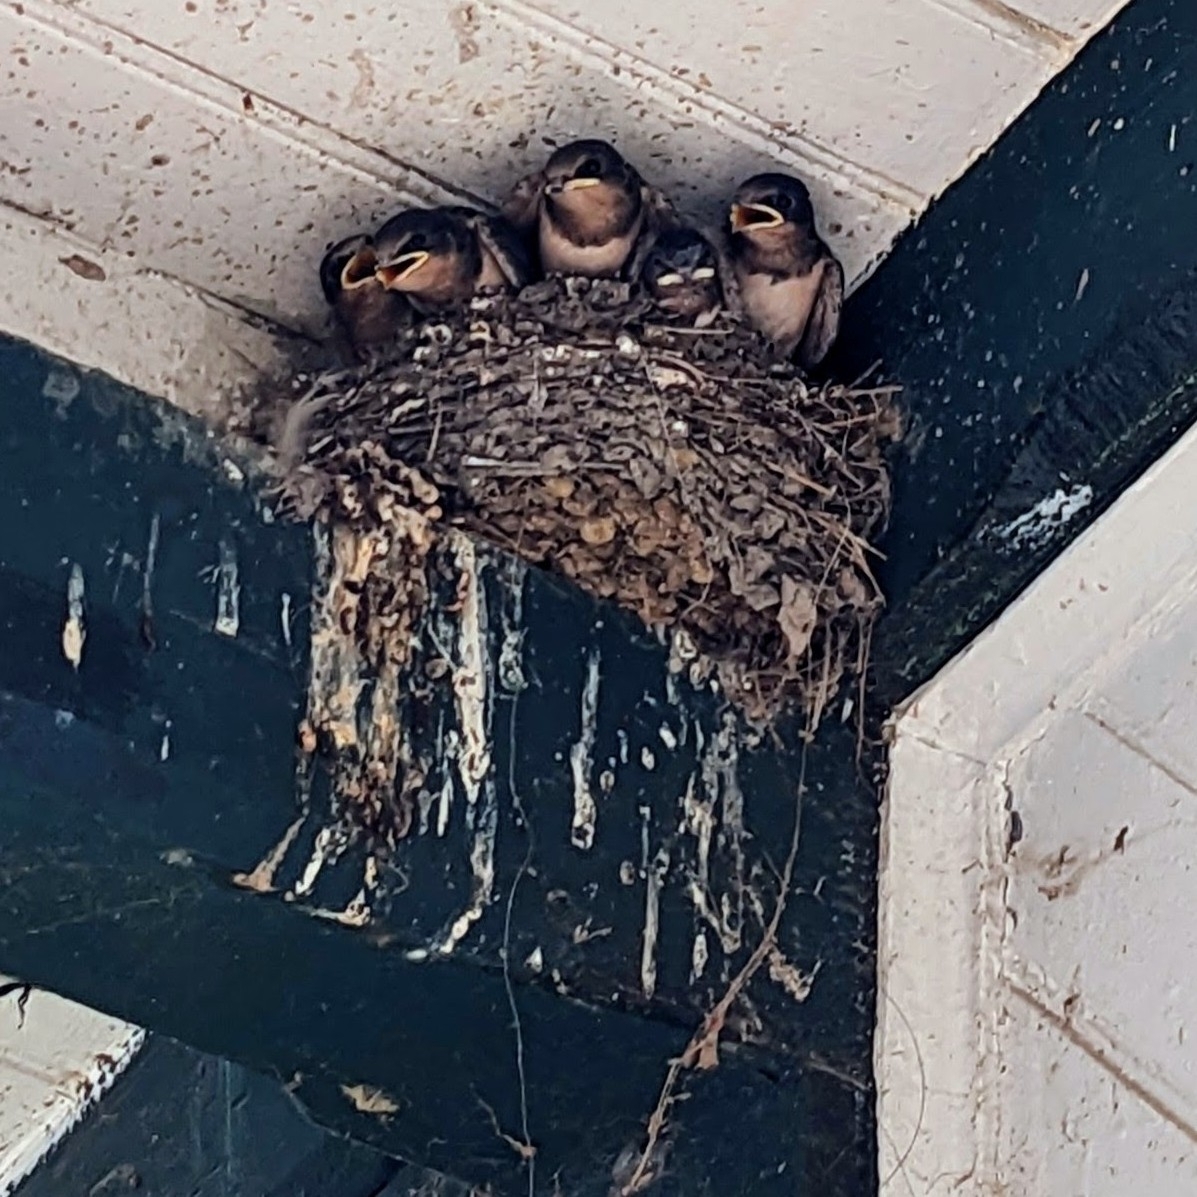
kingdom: Animalia
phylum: Chordata
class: Aves
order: Passeriformes
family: Hirundinidae
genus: Hirundo
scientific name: Hirundo rustica
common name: Barn swallow
